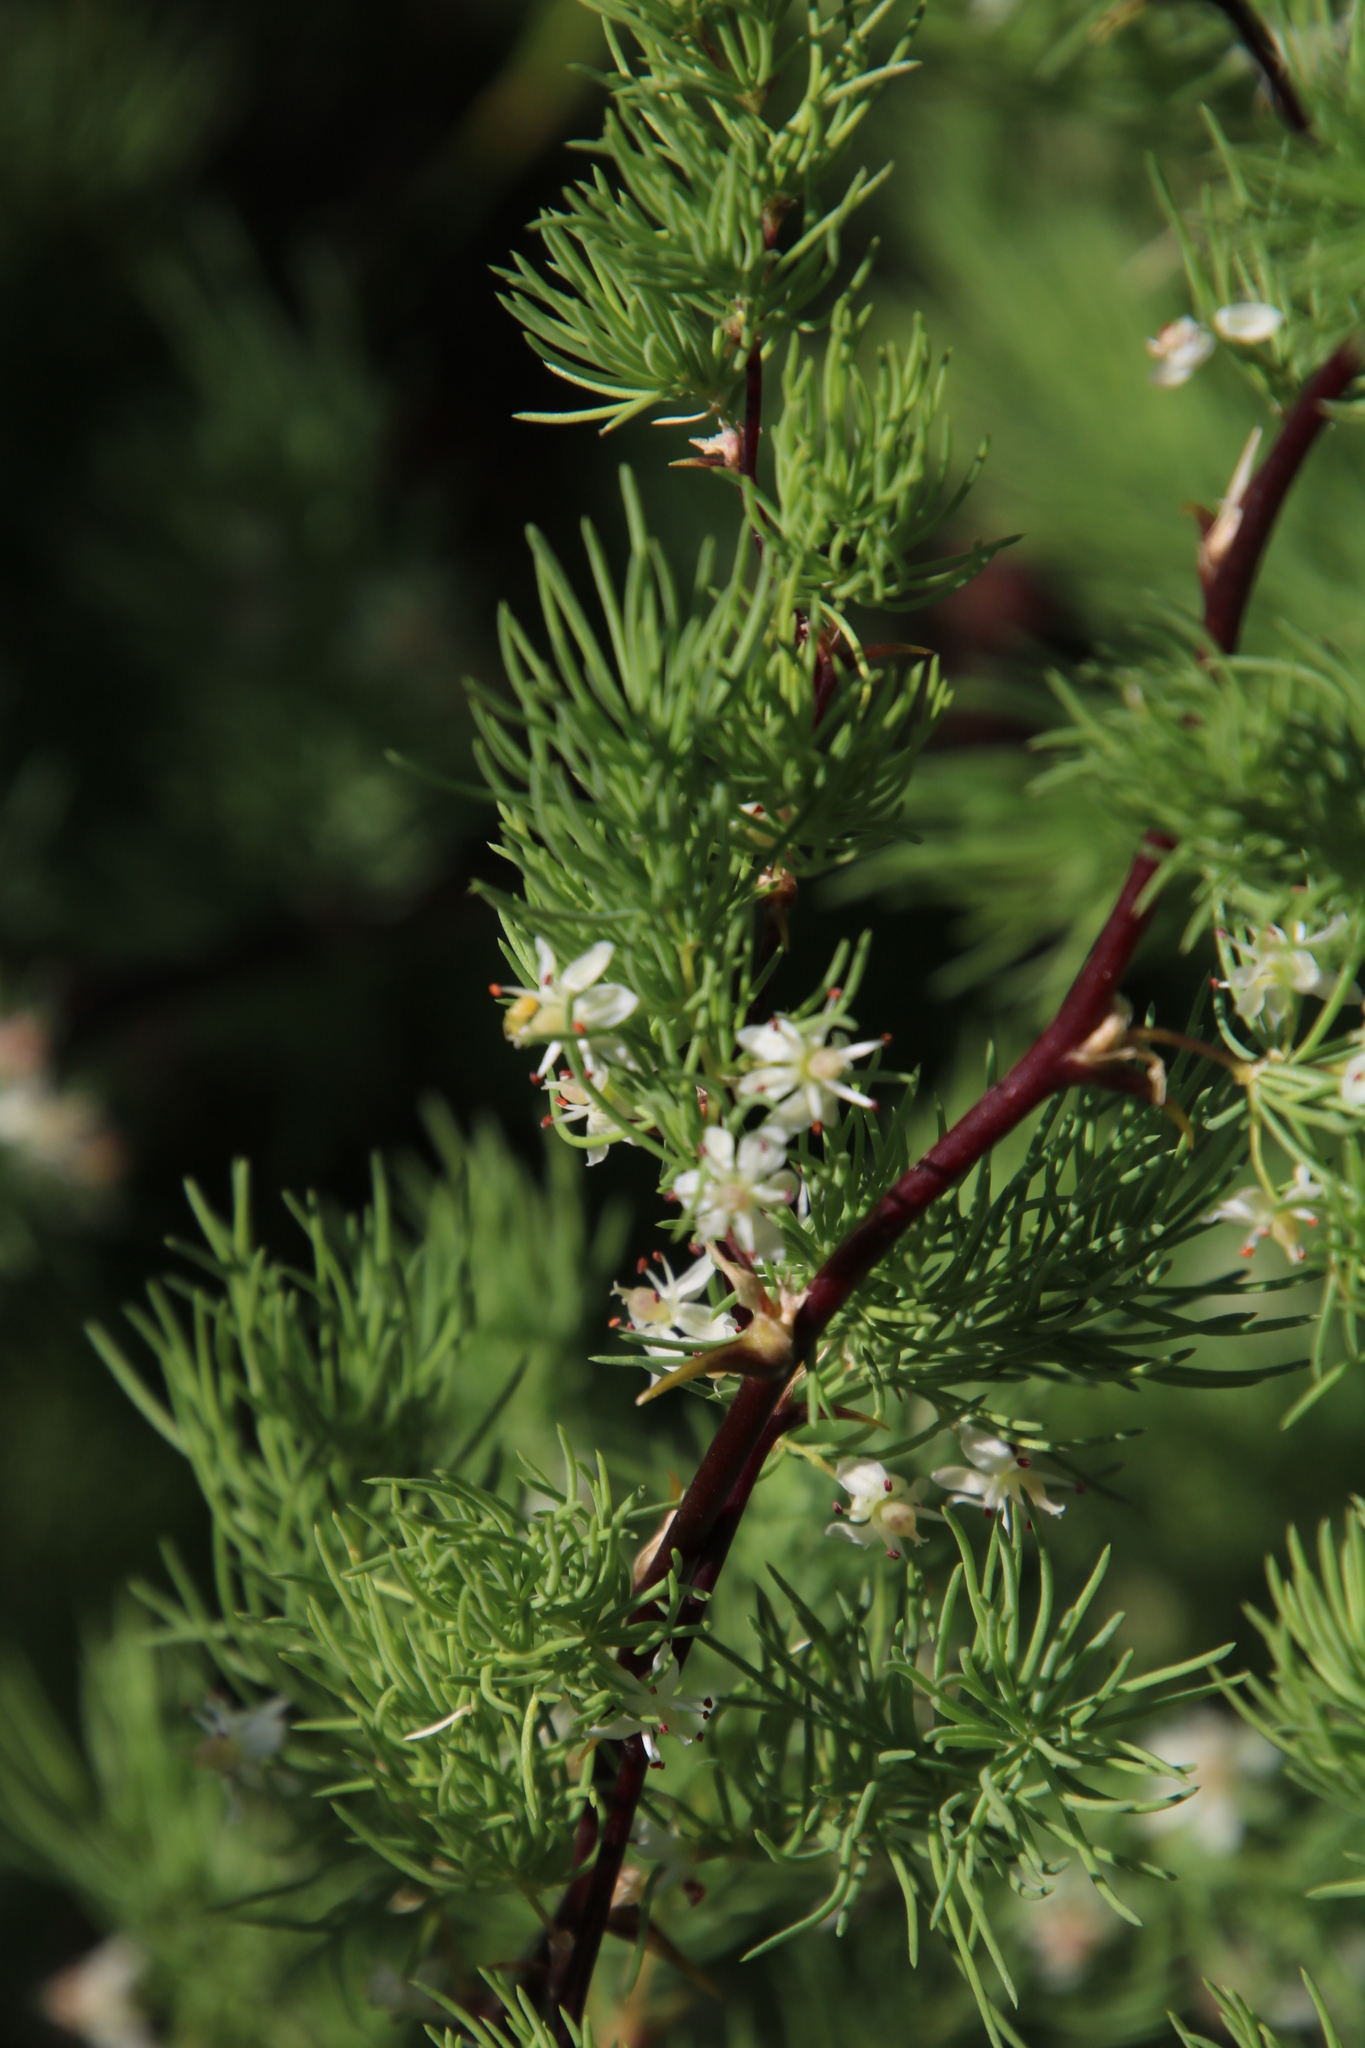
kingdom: Plantae
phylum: Tracheophyta
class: Liliopsida
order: Asparagales
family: Asparagaceae
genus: Asparagus
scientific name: Asparagus rubicundus
